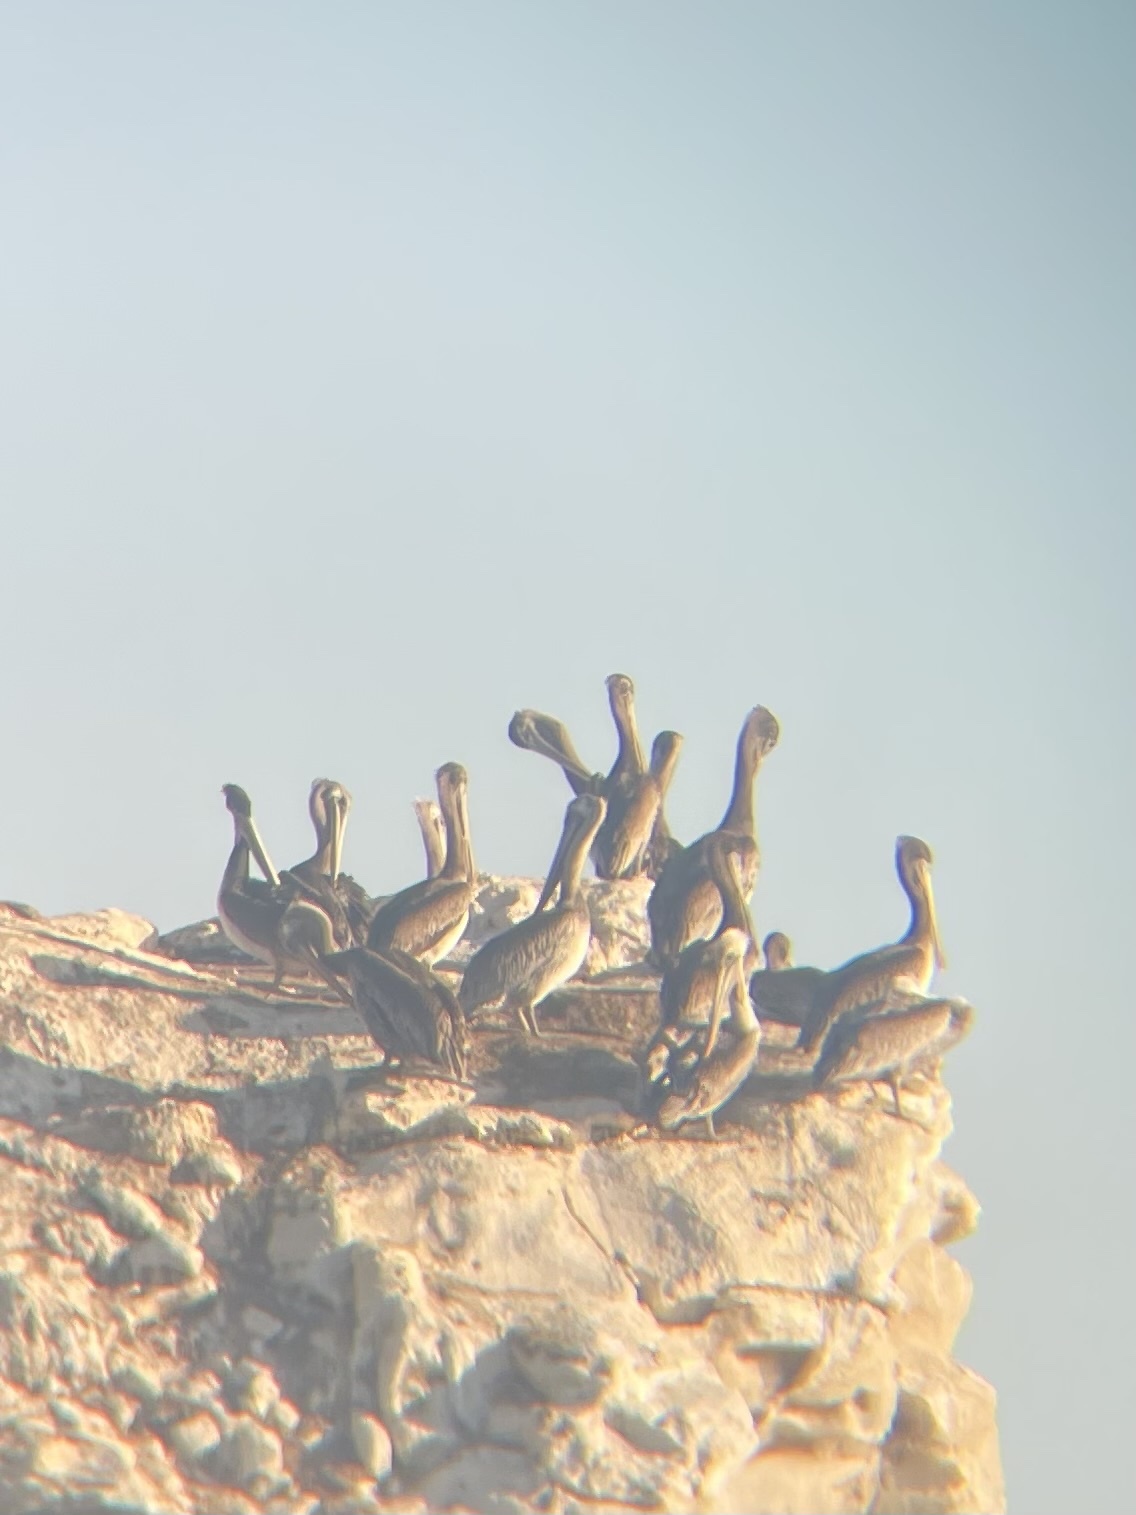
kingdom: Animalia
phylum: Chordata
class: Aves
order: Pelecaniformes
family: Pelecanidae
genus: Pelecanus
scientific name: Pelecanus occidentalis
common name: Brown pelican
